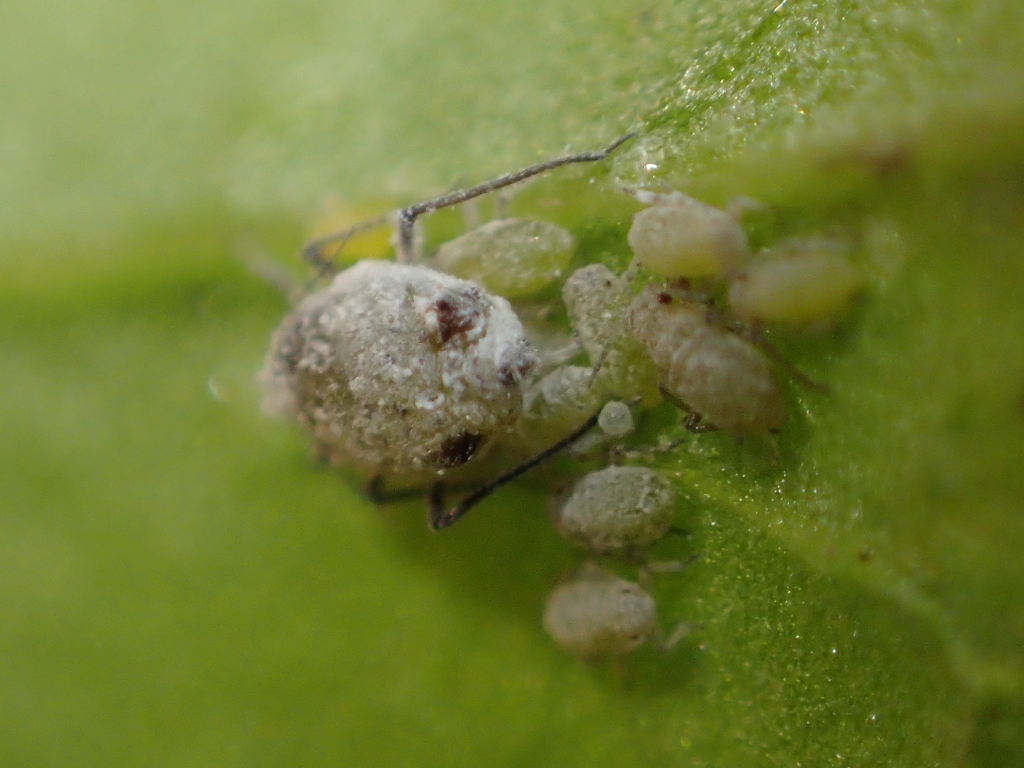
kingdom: Animalia
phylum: Arthropoda
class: Insecta
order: Hemiptera
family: Aphididae
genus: Brevicoryne
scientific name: Brevicoryne brassicae
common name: Cabbage aphid
